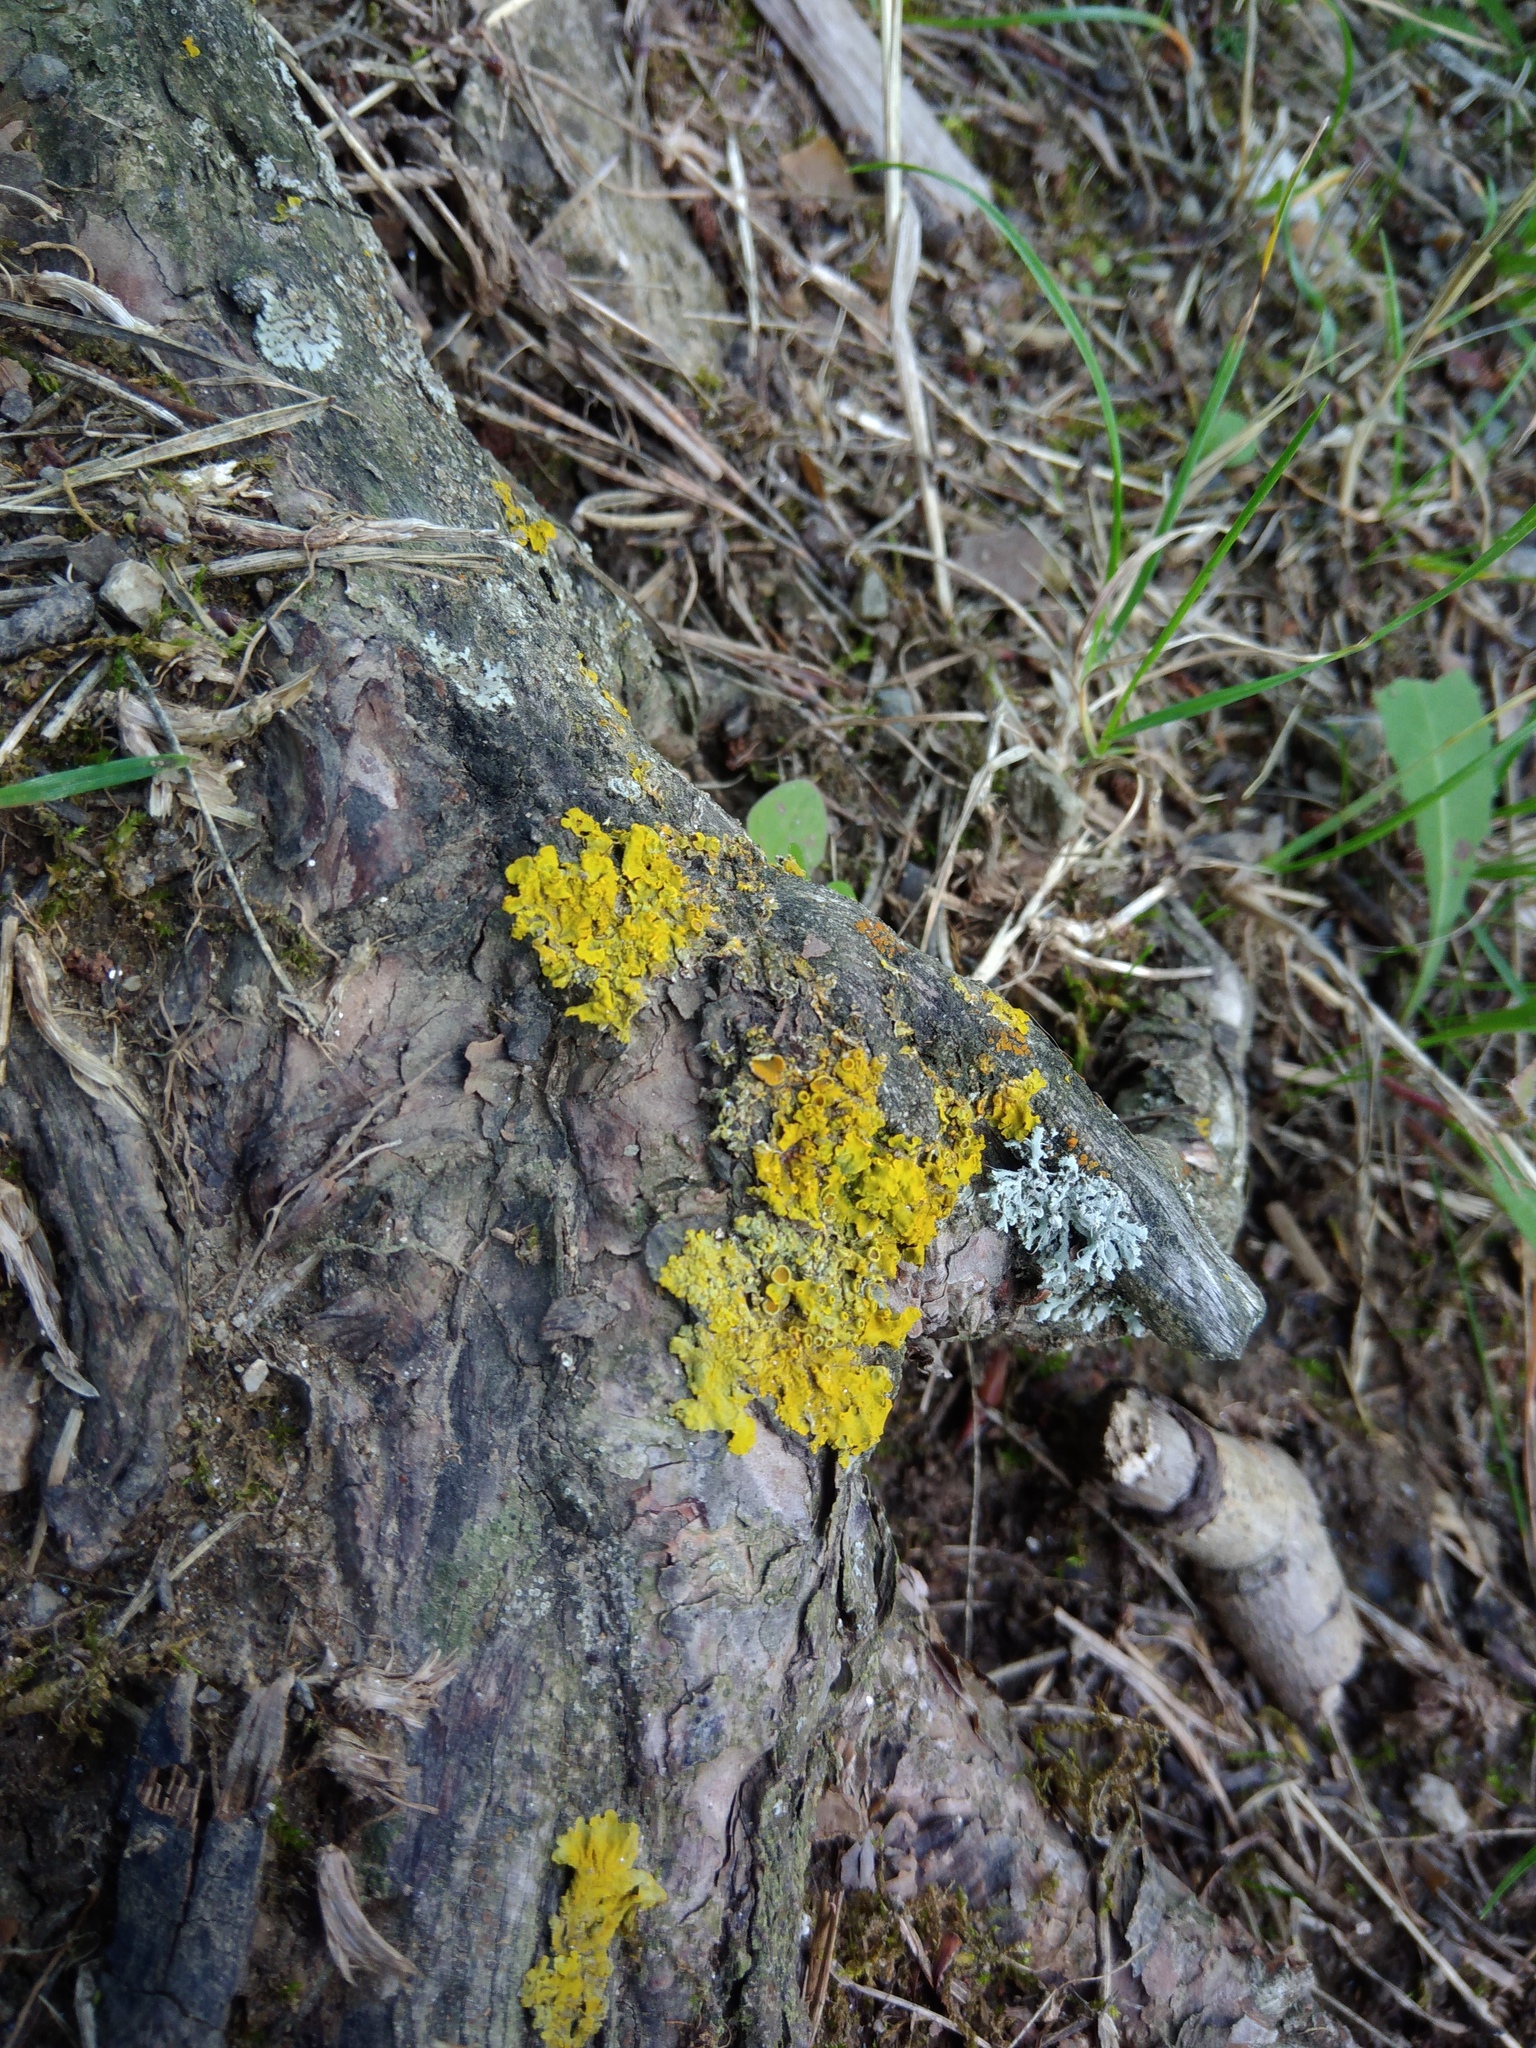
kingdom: Fungi
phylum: Ascomycota
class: Lecanoromycetes
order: Teloschistales
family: Teloschistaceae
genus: Xanthoria
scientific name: Xanthoria parietina
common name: Common orange lichen
